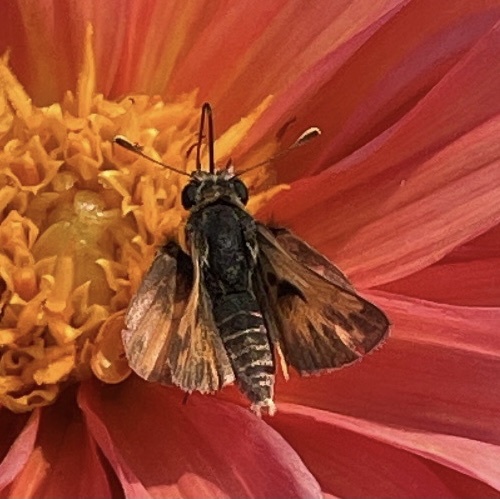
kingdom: Animalia
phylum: Arthropoda
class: Insecta
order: Lepidoptera
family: Hesperiidae
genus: Polites
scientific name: Polites sabuleti
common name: Sandhill skipper
